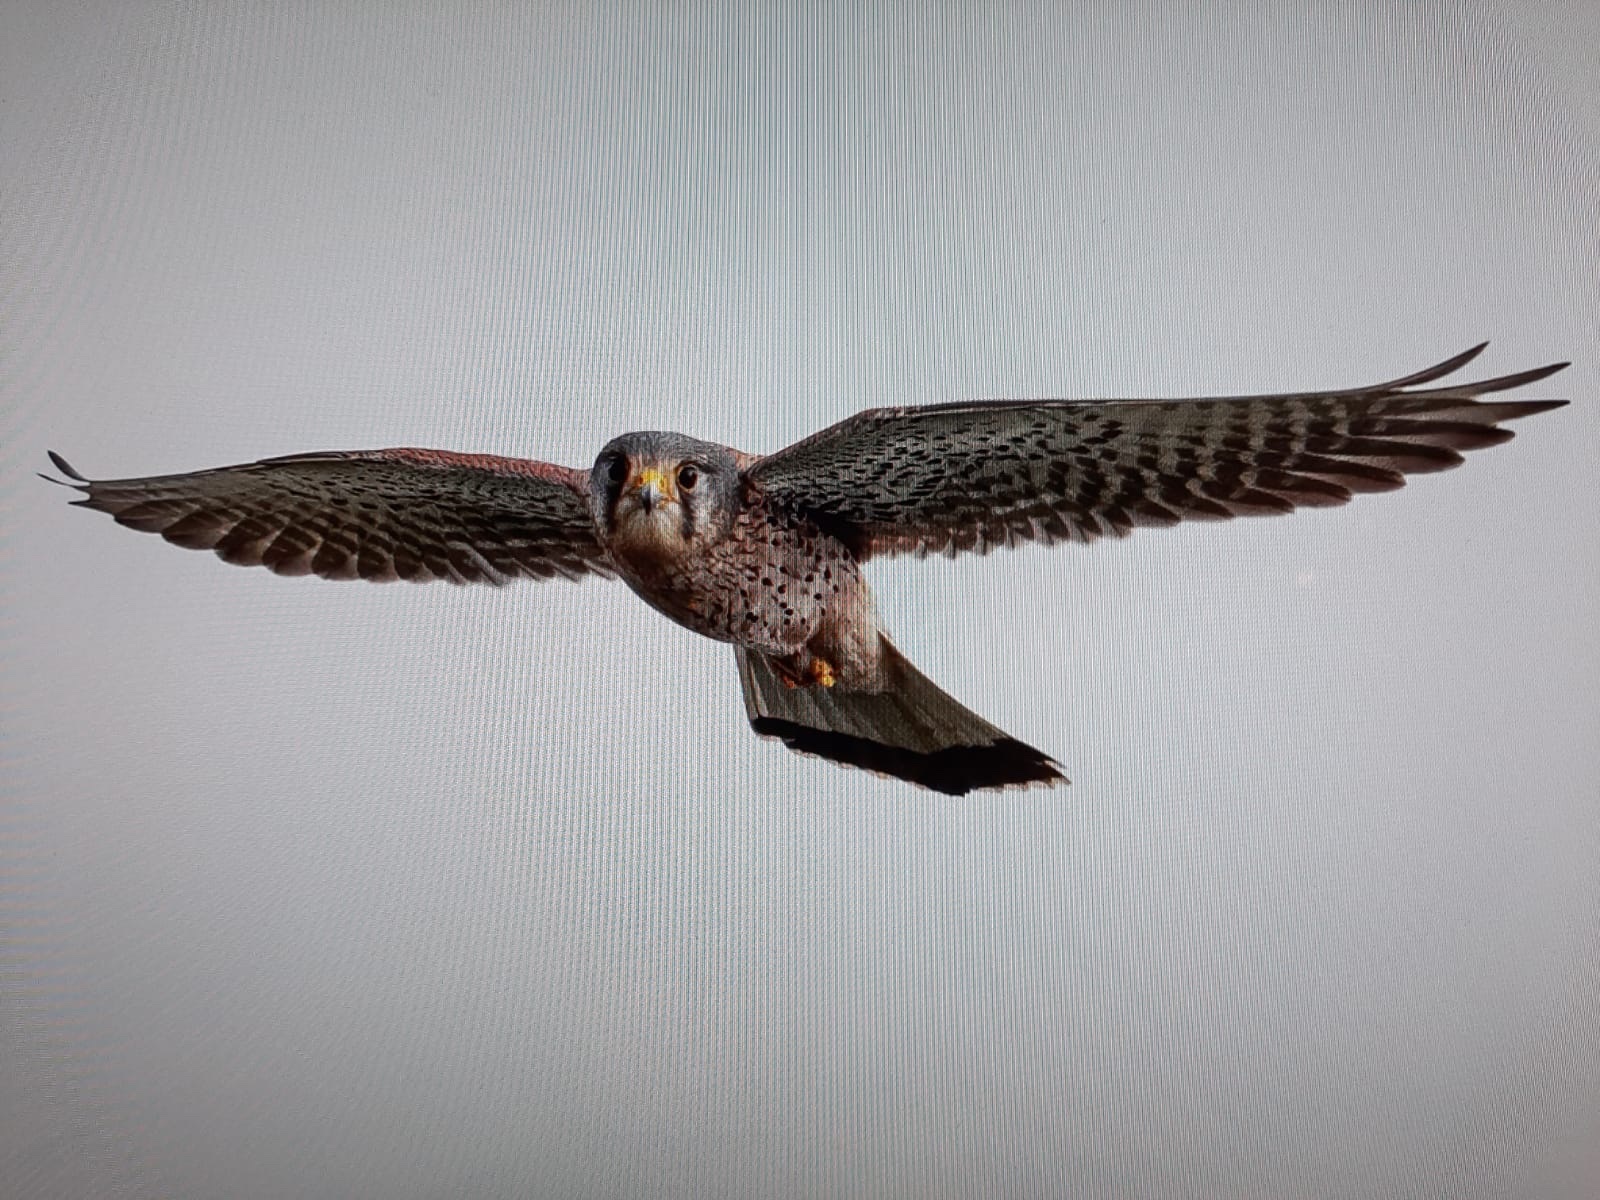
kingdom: Animalia
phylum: Chordata
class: Aves
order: Falconiformes
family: Falconidae
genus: Falco
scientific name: Falco tinnunculus
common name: Common kestrel
